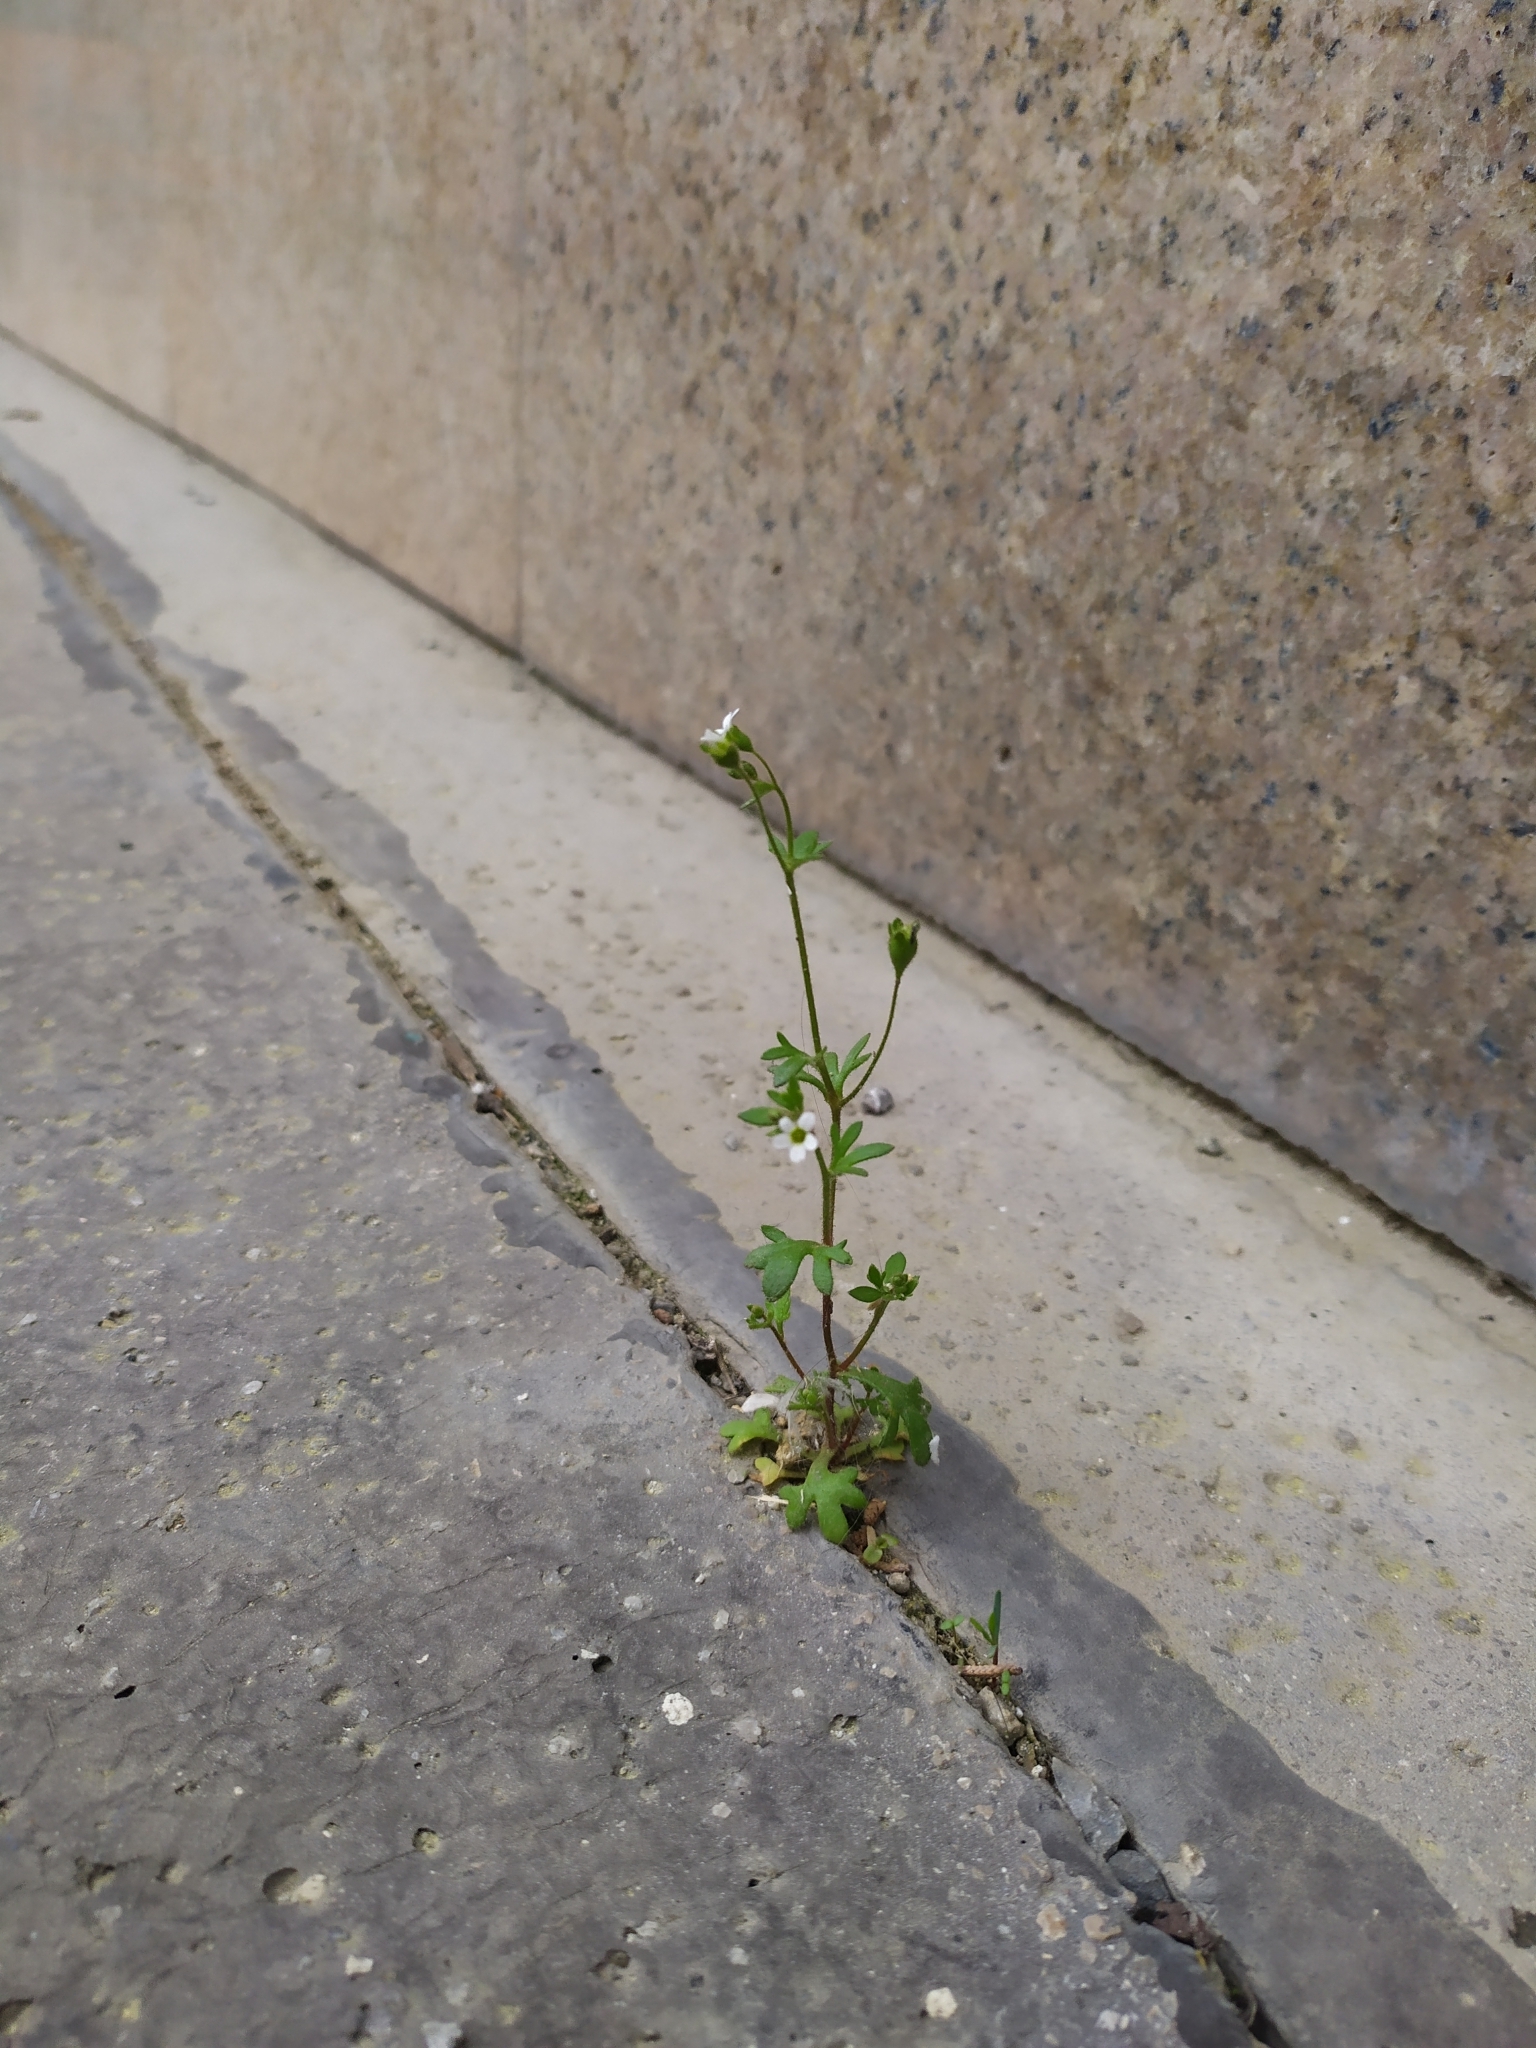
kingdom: Plantae
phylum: Tracheophyta
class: Magnoliopsida
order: Saxifragales
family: Saxifragaceae
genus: Saxifraga
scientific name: Saxifraga tridactylites
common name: Rue-leaved saxifrage
